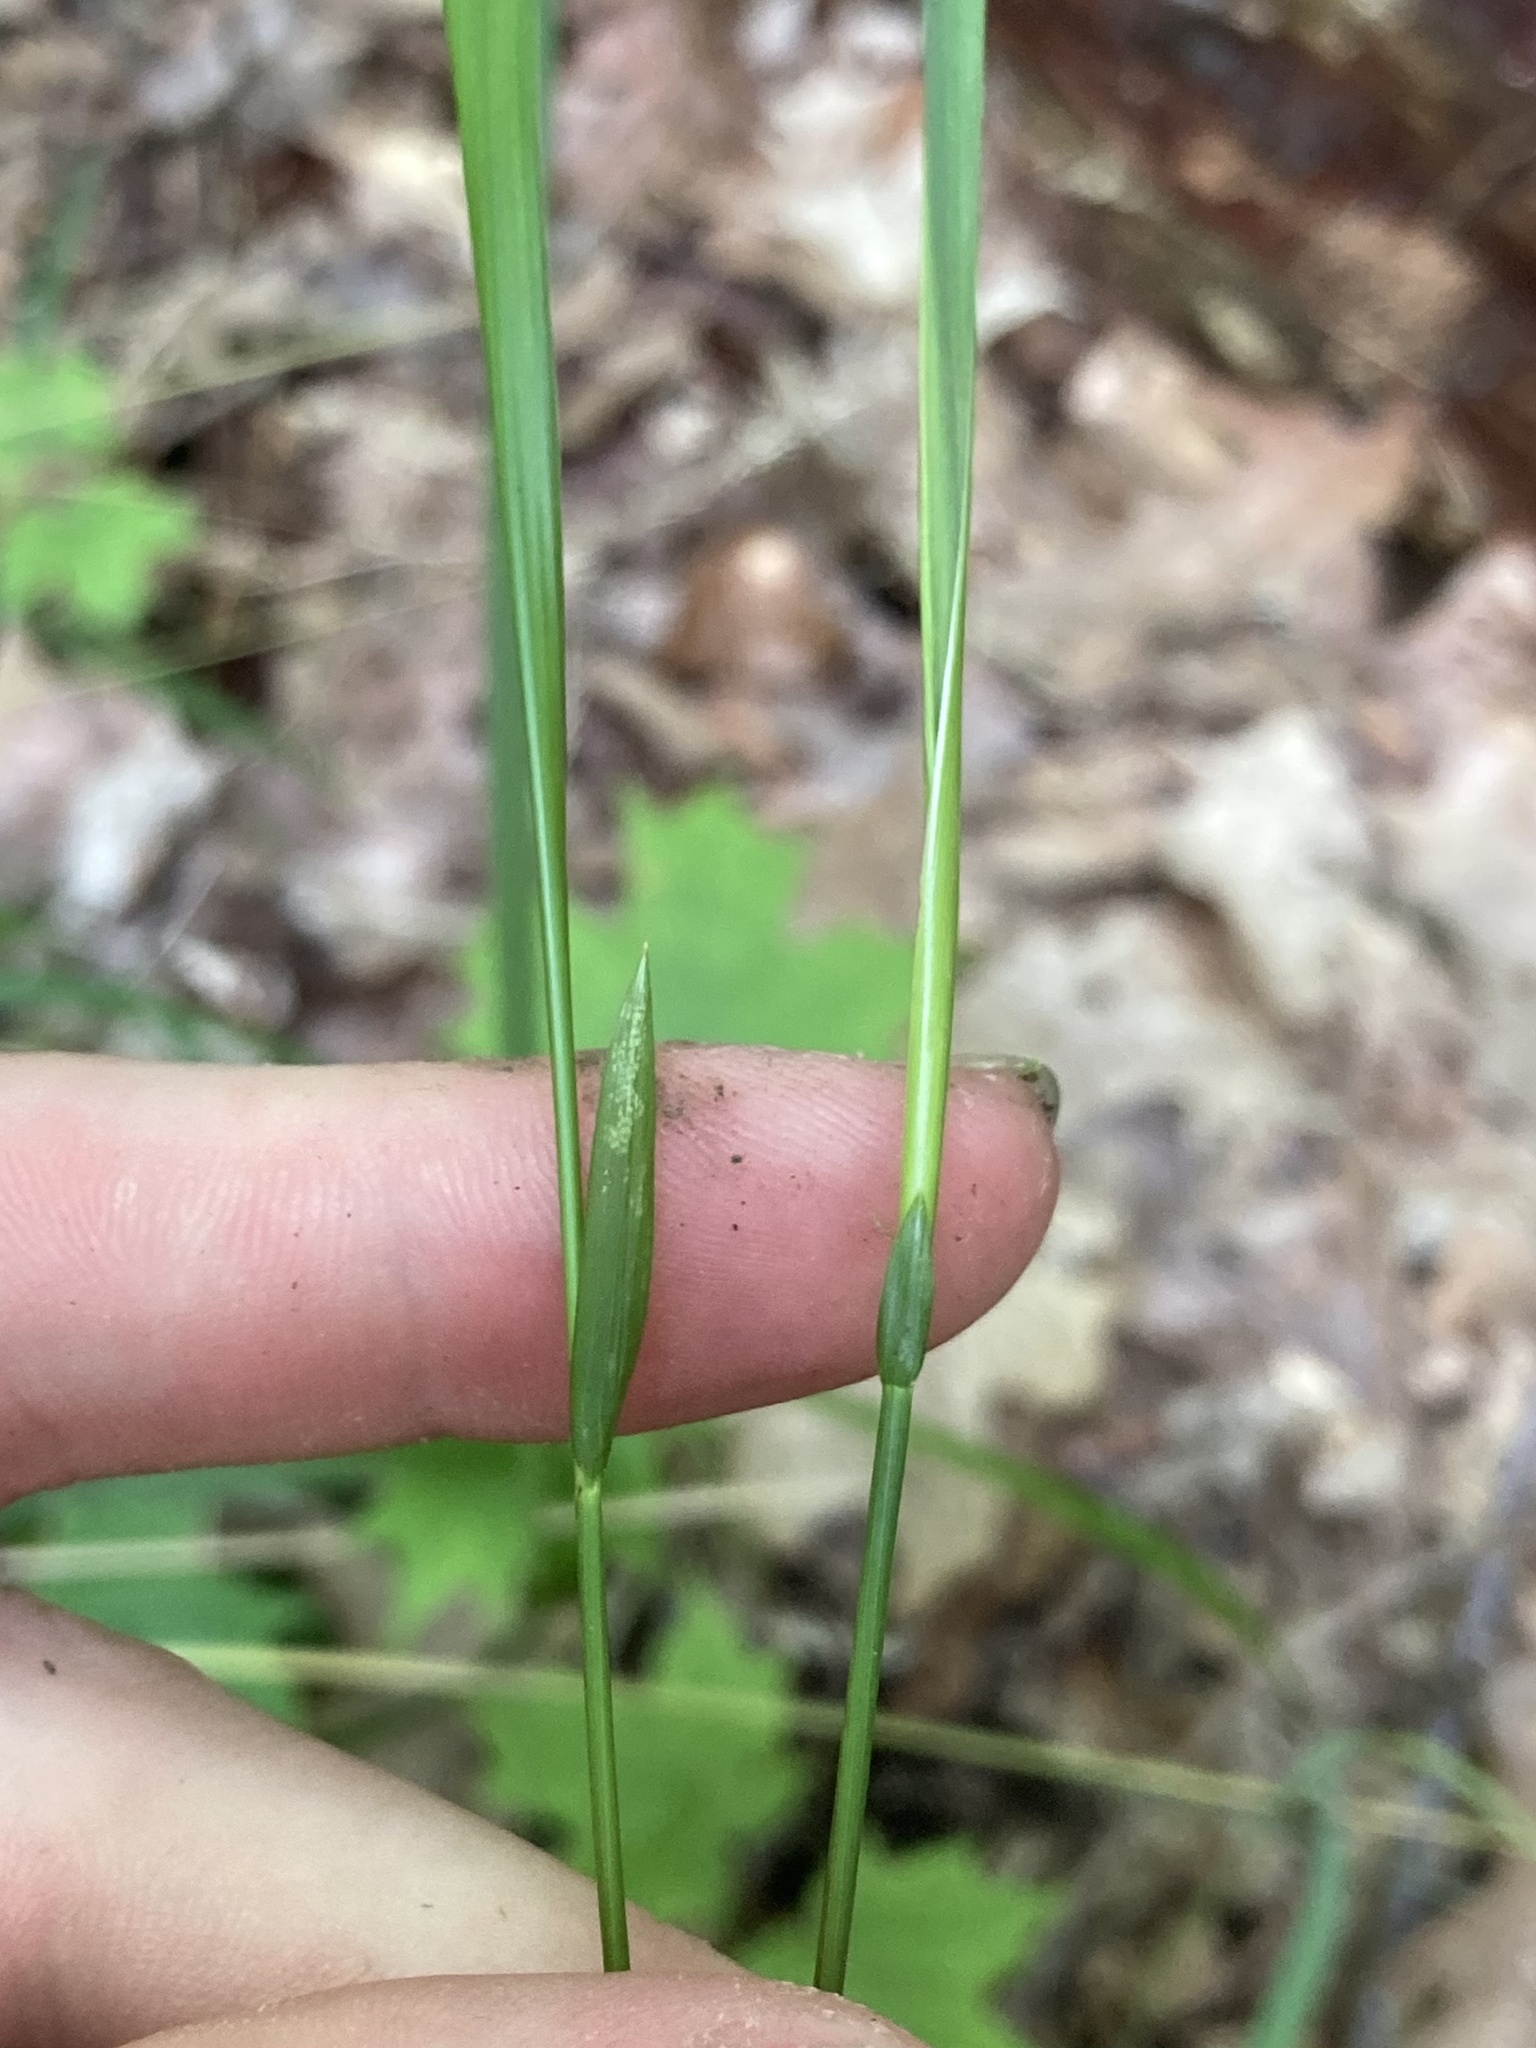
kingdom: Plantae
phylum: Tracheophyta
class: Liliopsida
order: Poales
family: Poaceae
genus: Oryzopsis
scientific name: Oryzopsis asperifolia
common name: Rough-leaved mountain rice
